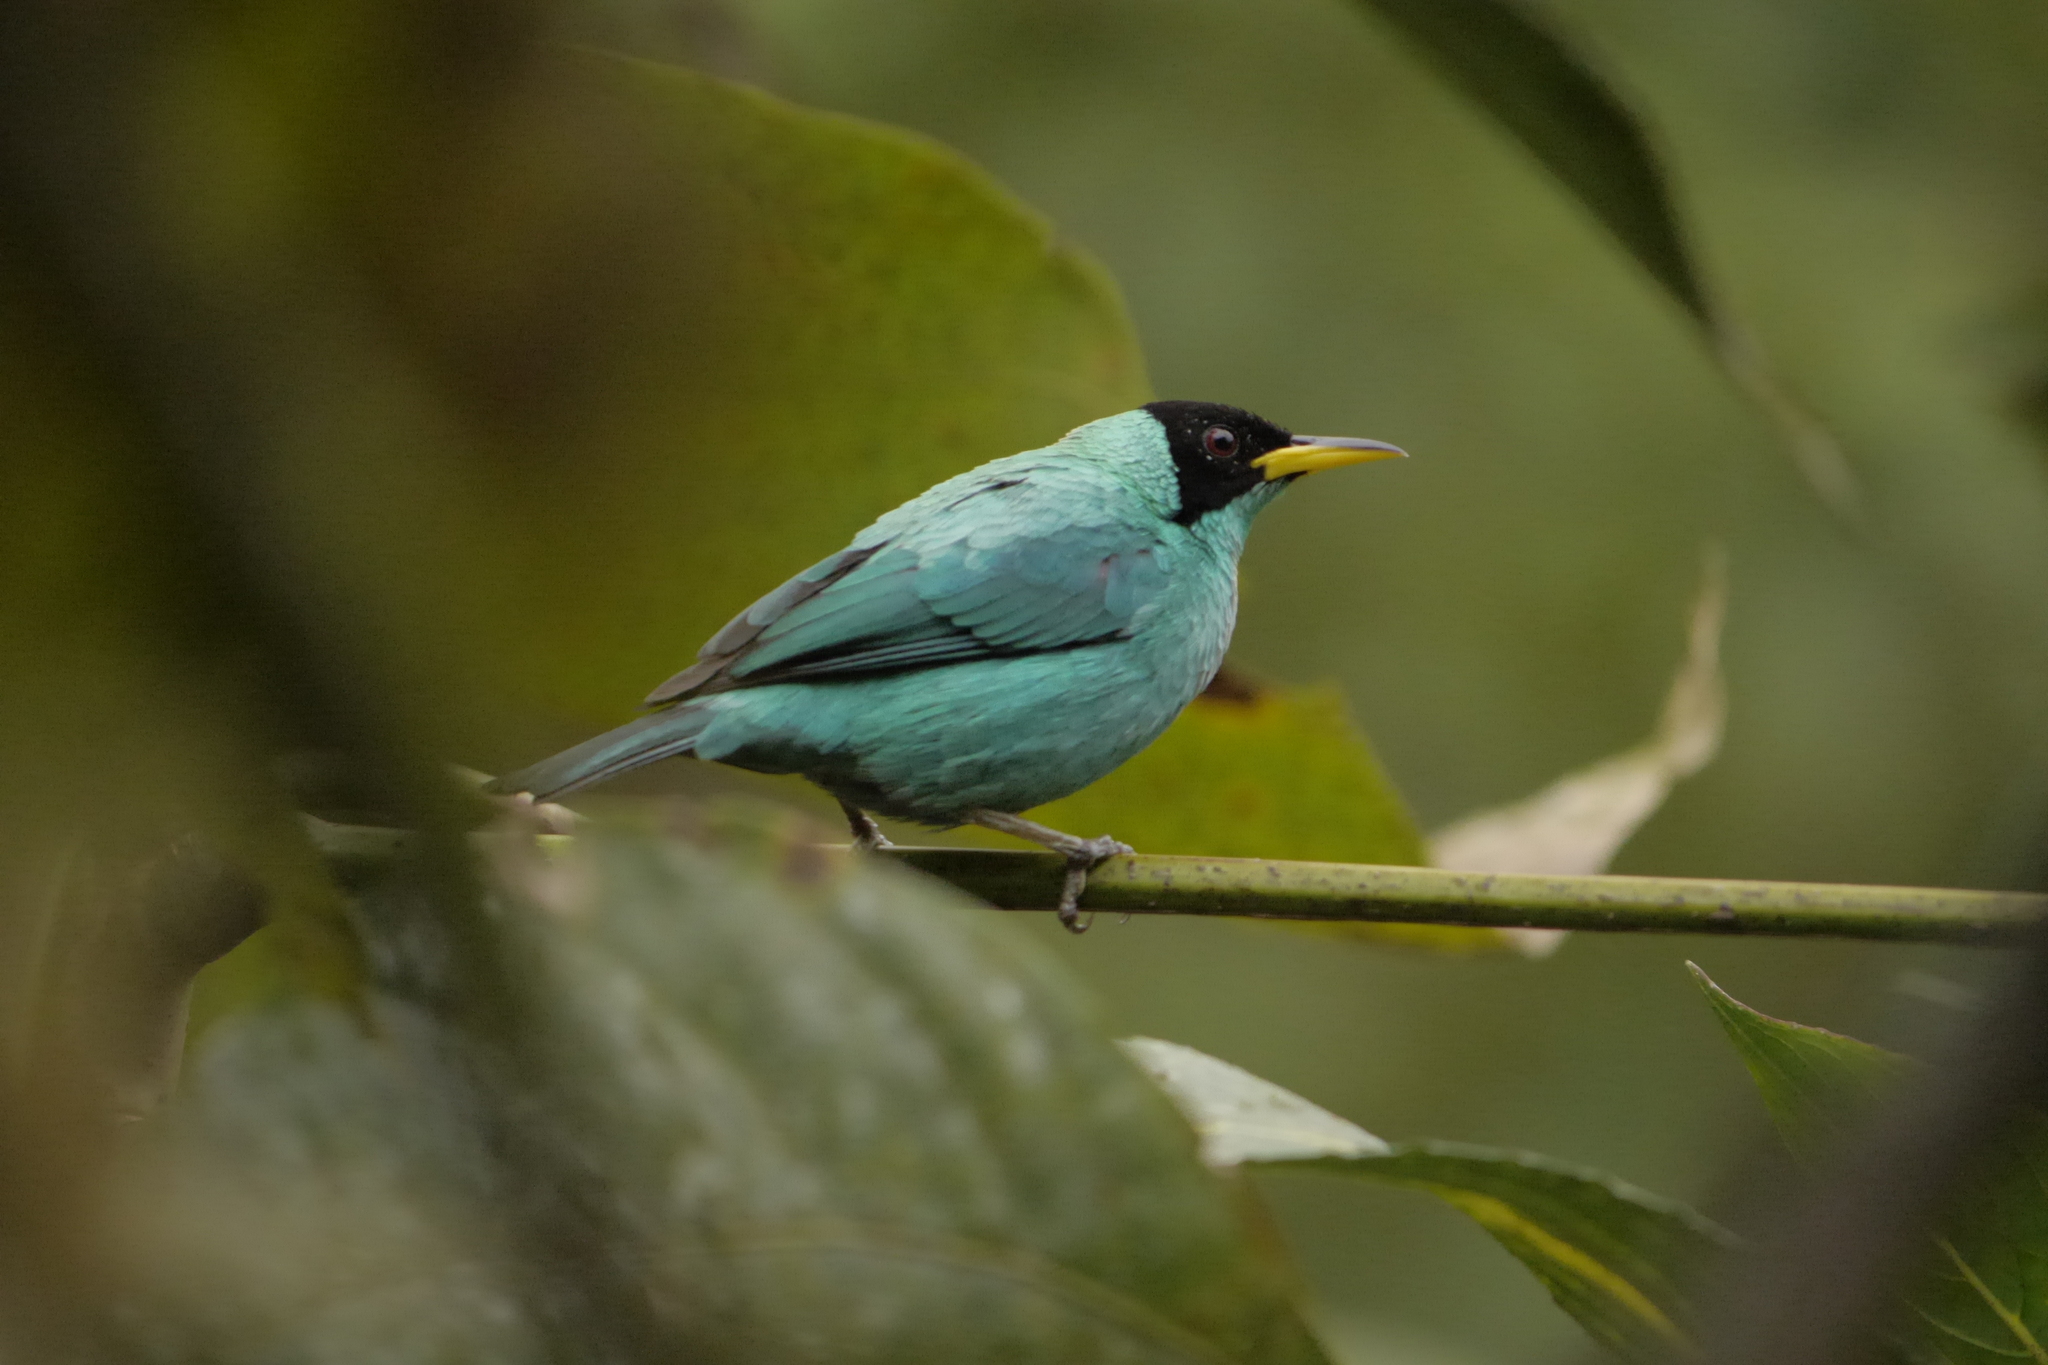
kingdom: Animalia
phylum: Chordata
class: Aves
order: Passeriformes
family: Thraupidae
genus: Chlorophanes
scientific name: Chlorophanes spiza
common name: Green honeycreeper
